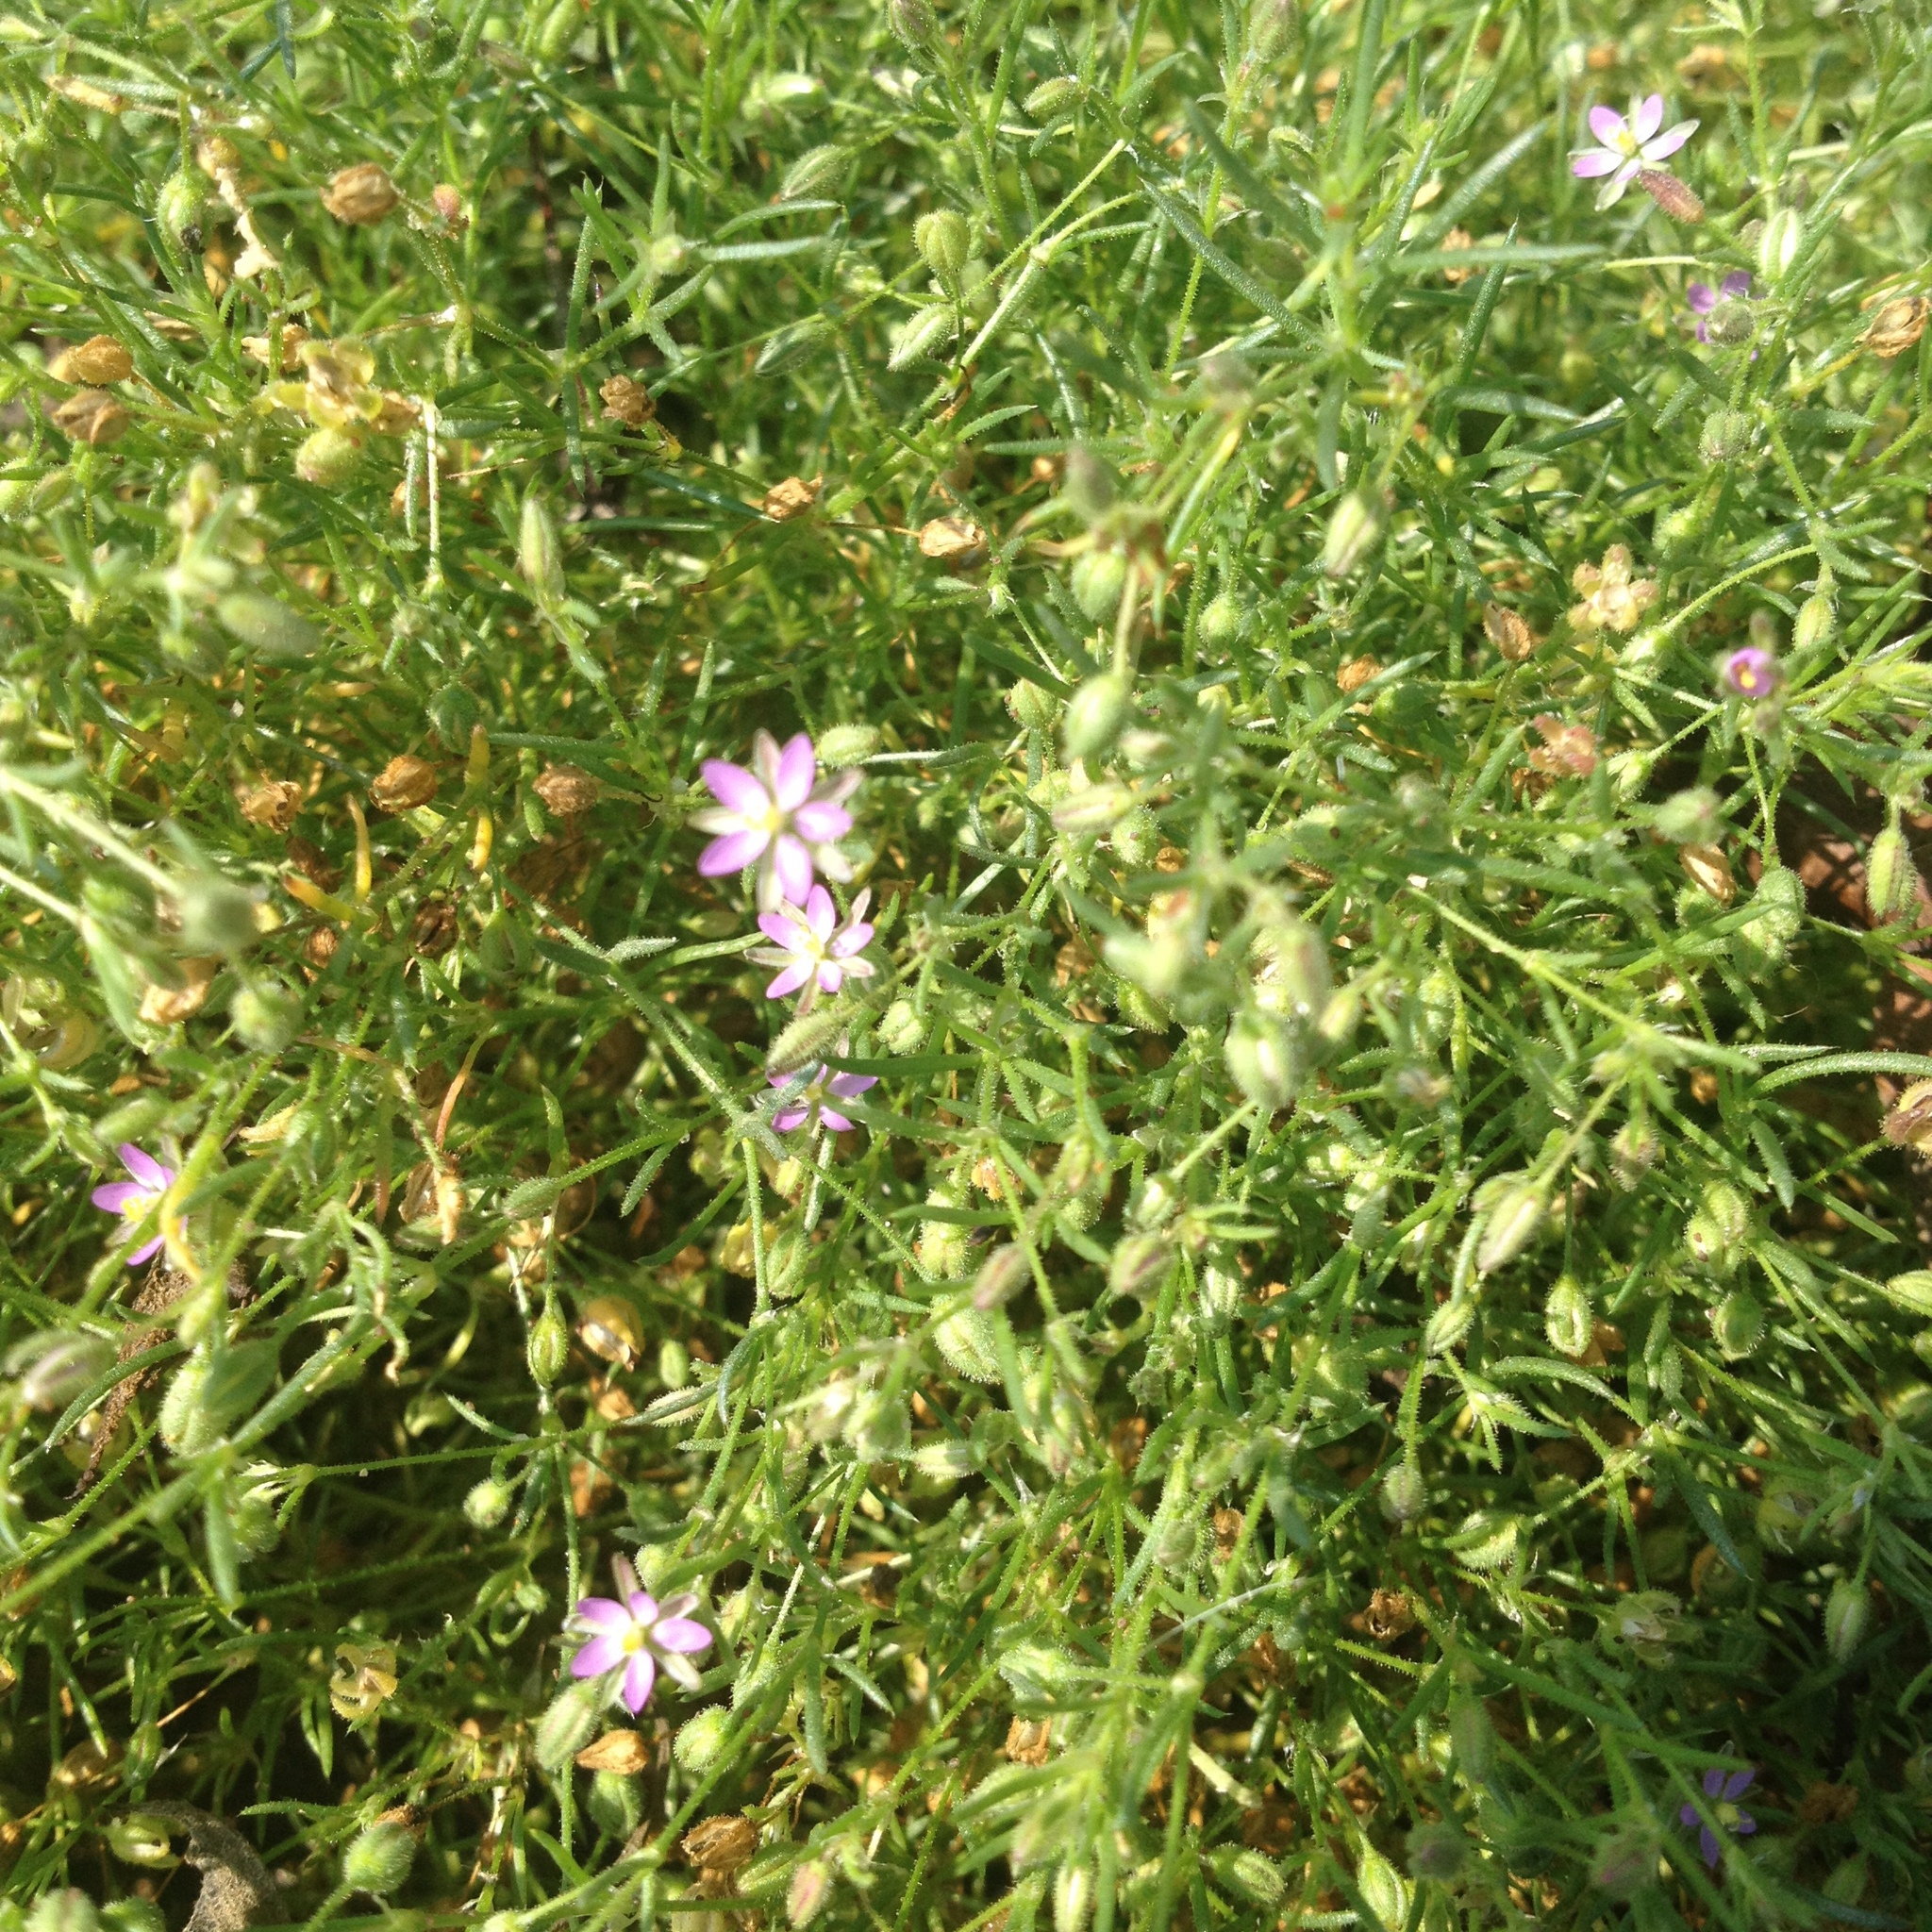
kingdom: Plantae
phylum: Tracheophyta
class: Magnoliopsida
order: Caryophyllales
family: Caryophyllaceae
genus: Spergularia
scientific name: Spergularia rubra
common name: Red sand-spurrey
